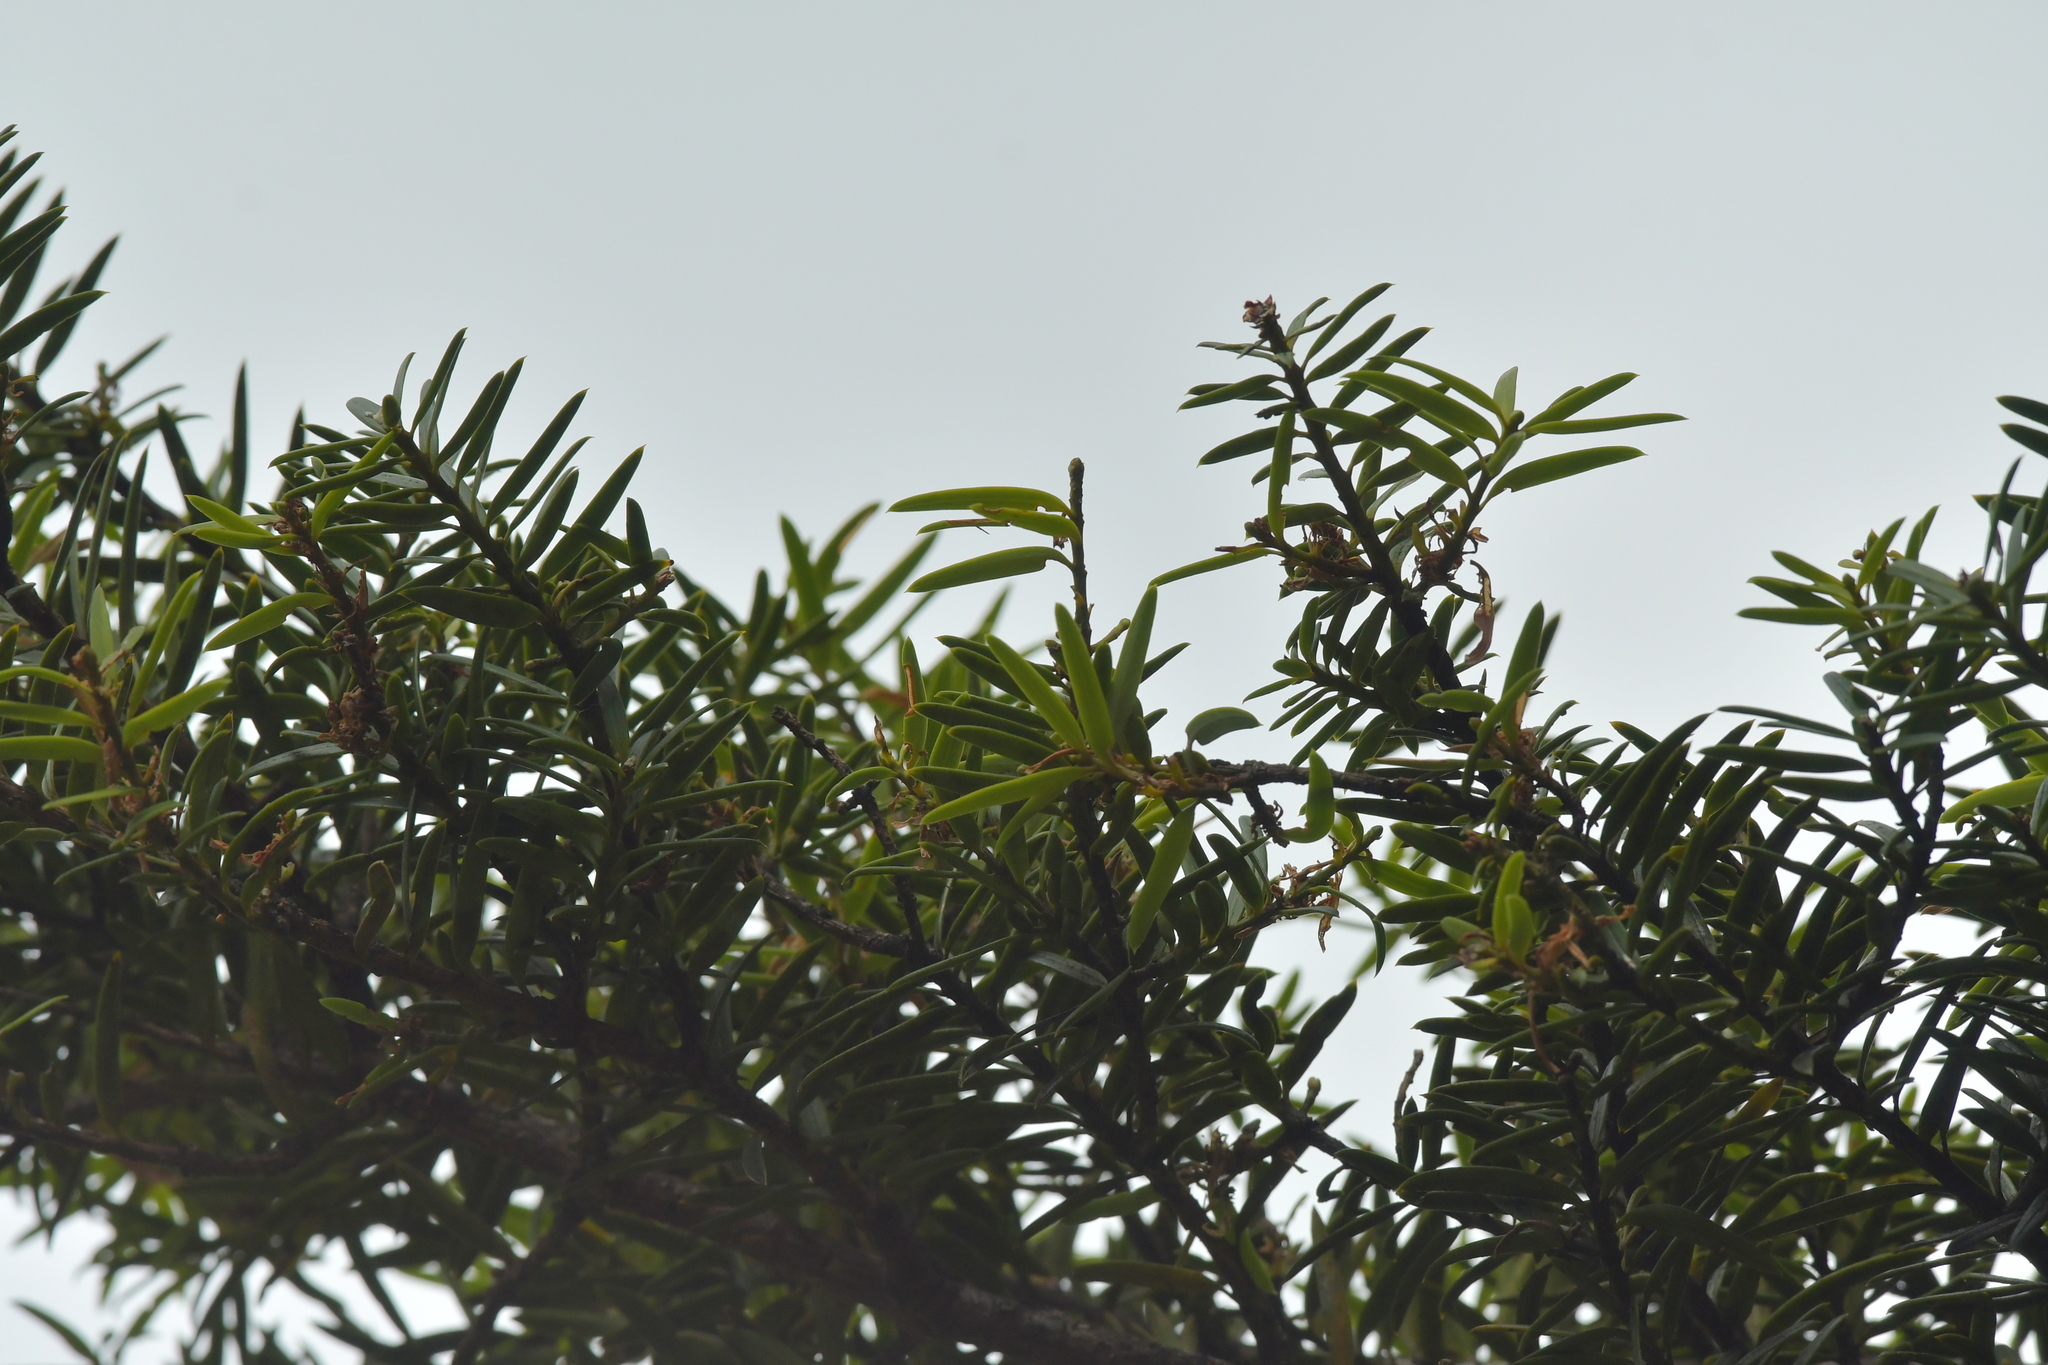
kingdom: Plantae
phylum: Tracheophyta
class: Pinopsida
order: Pinales
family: Podocarpaceae
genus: Podocarpus
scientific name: Podocarpus laetus
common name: Hall's totara
